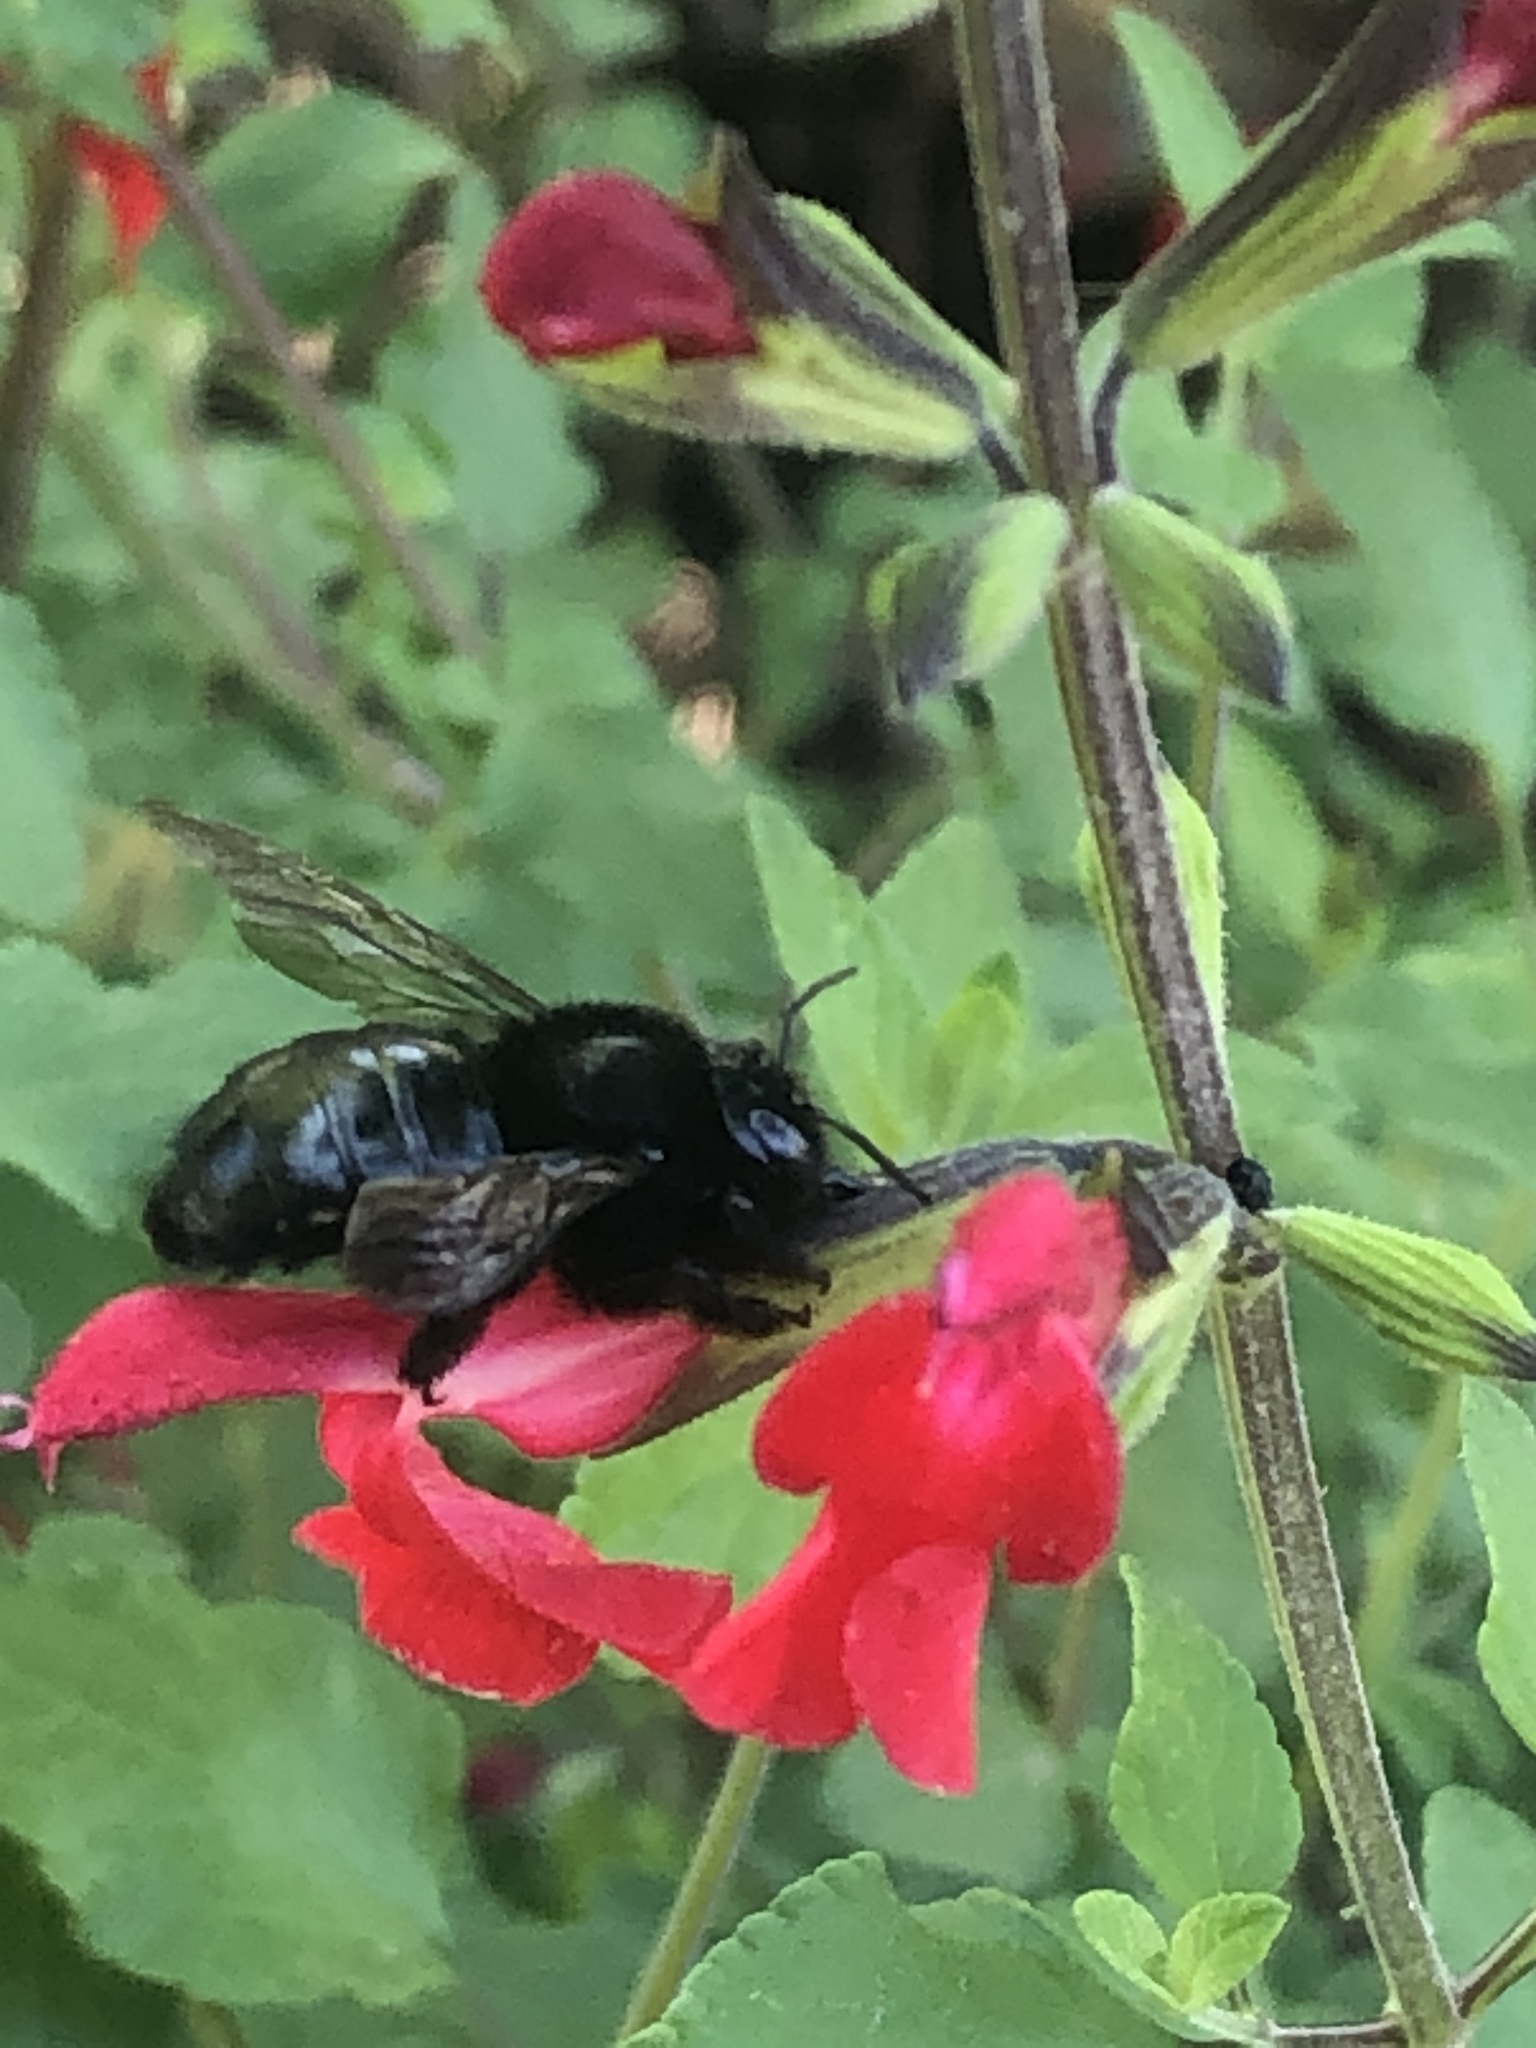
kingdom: Animalia
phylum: Arthropoda
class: Insecta
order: Hymenoptera
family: Apidae
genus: Xylocopa
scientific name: Xylocopa tabaniformis
